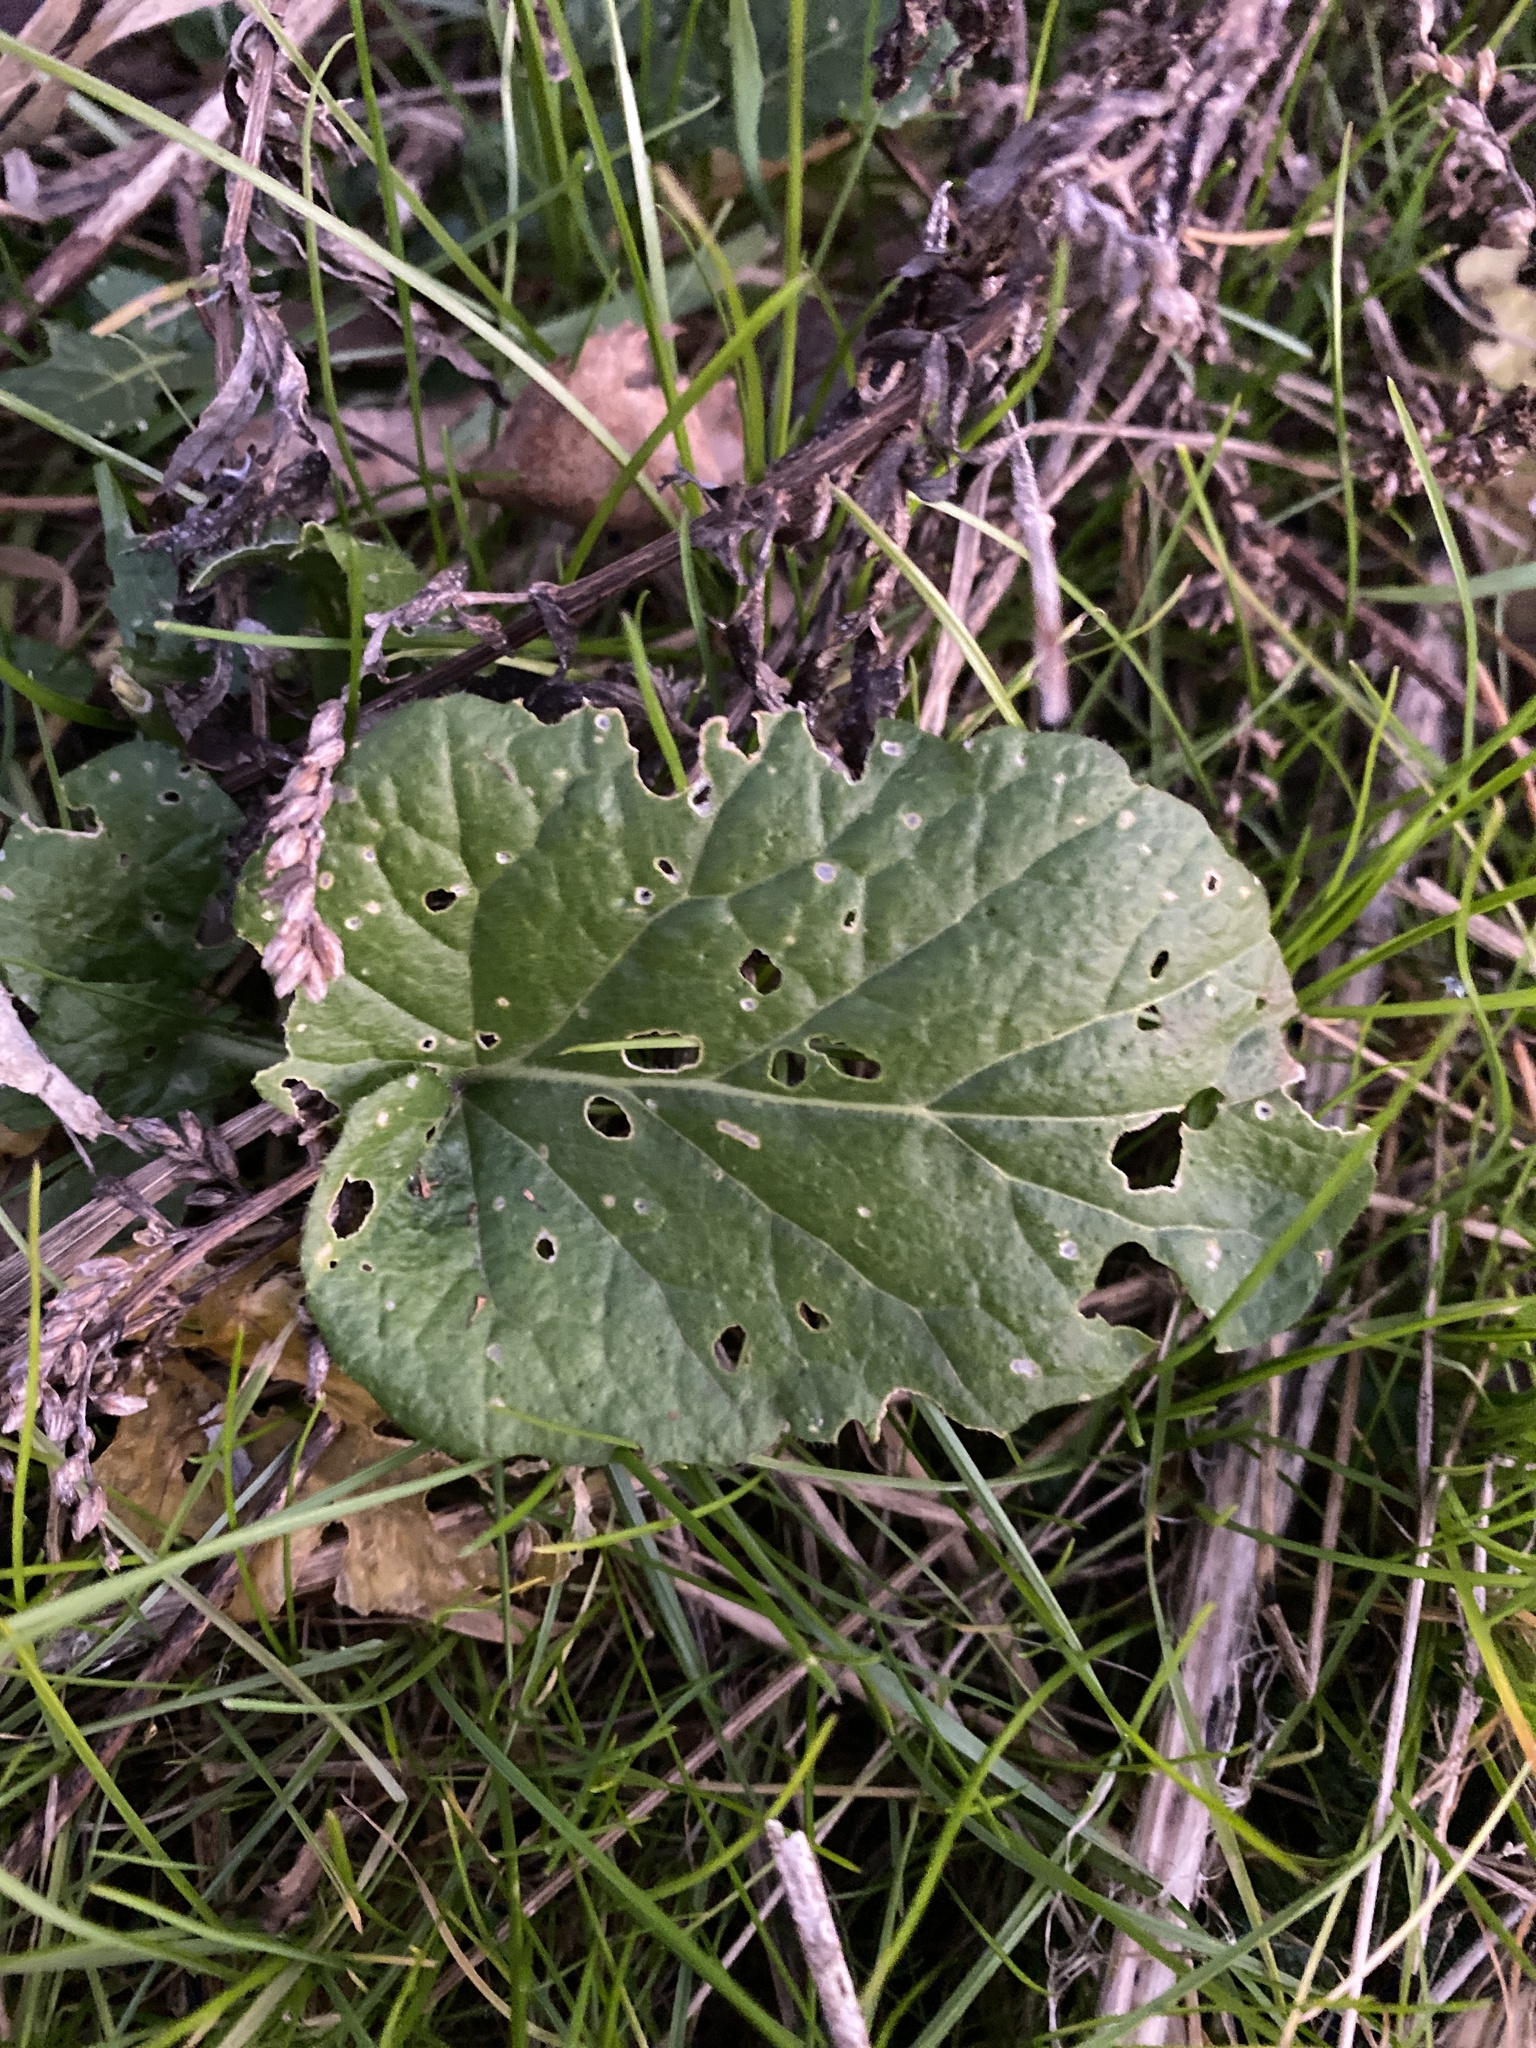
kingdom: Plantae
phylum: Tracheophyta
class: Magnoliopsida
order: Brassicales
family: Brassicaceae
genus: Barbarea
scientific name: Barbarea vulgaris
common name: Cressy-greens
